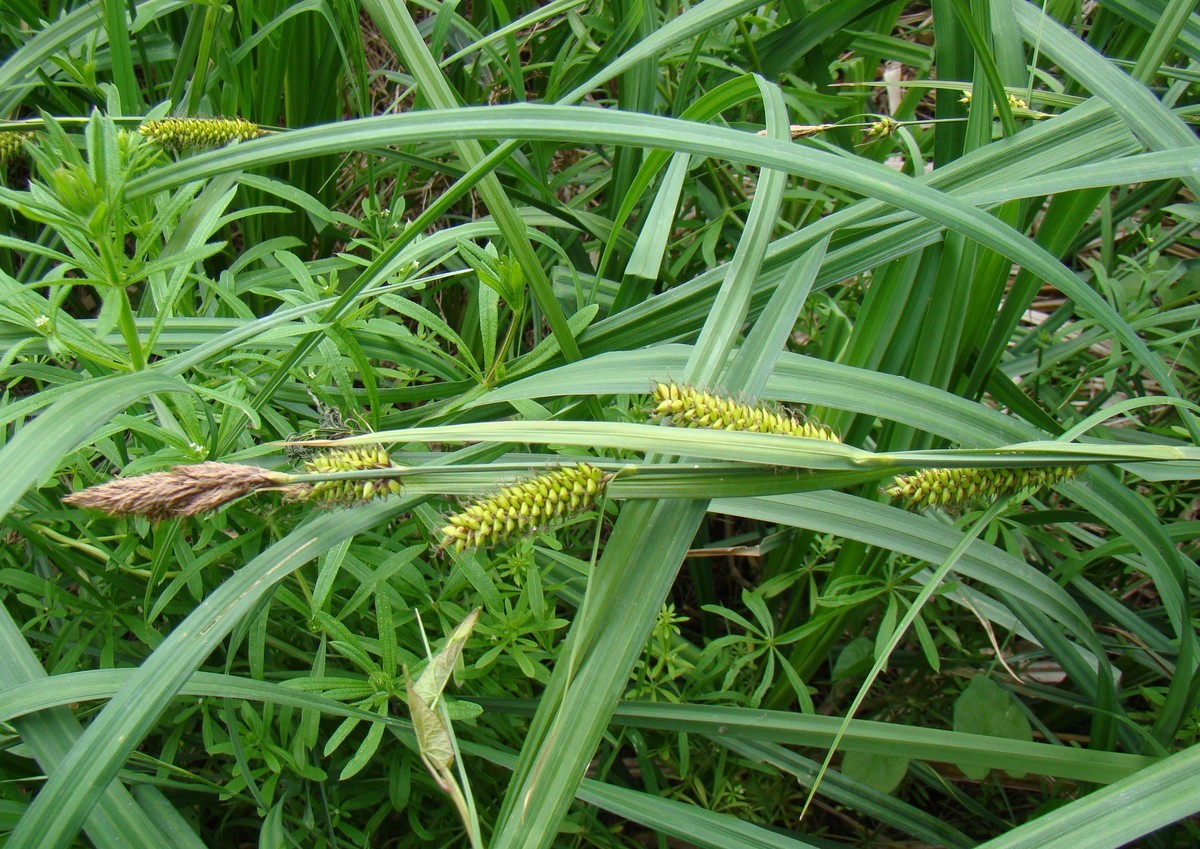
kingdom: Plantae
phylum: Tracheophyta
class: Liliopsida
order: Poales
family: Cyperaceae
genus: Carex
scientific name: Carex riparia
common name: Greater pond-sedge
